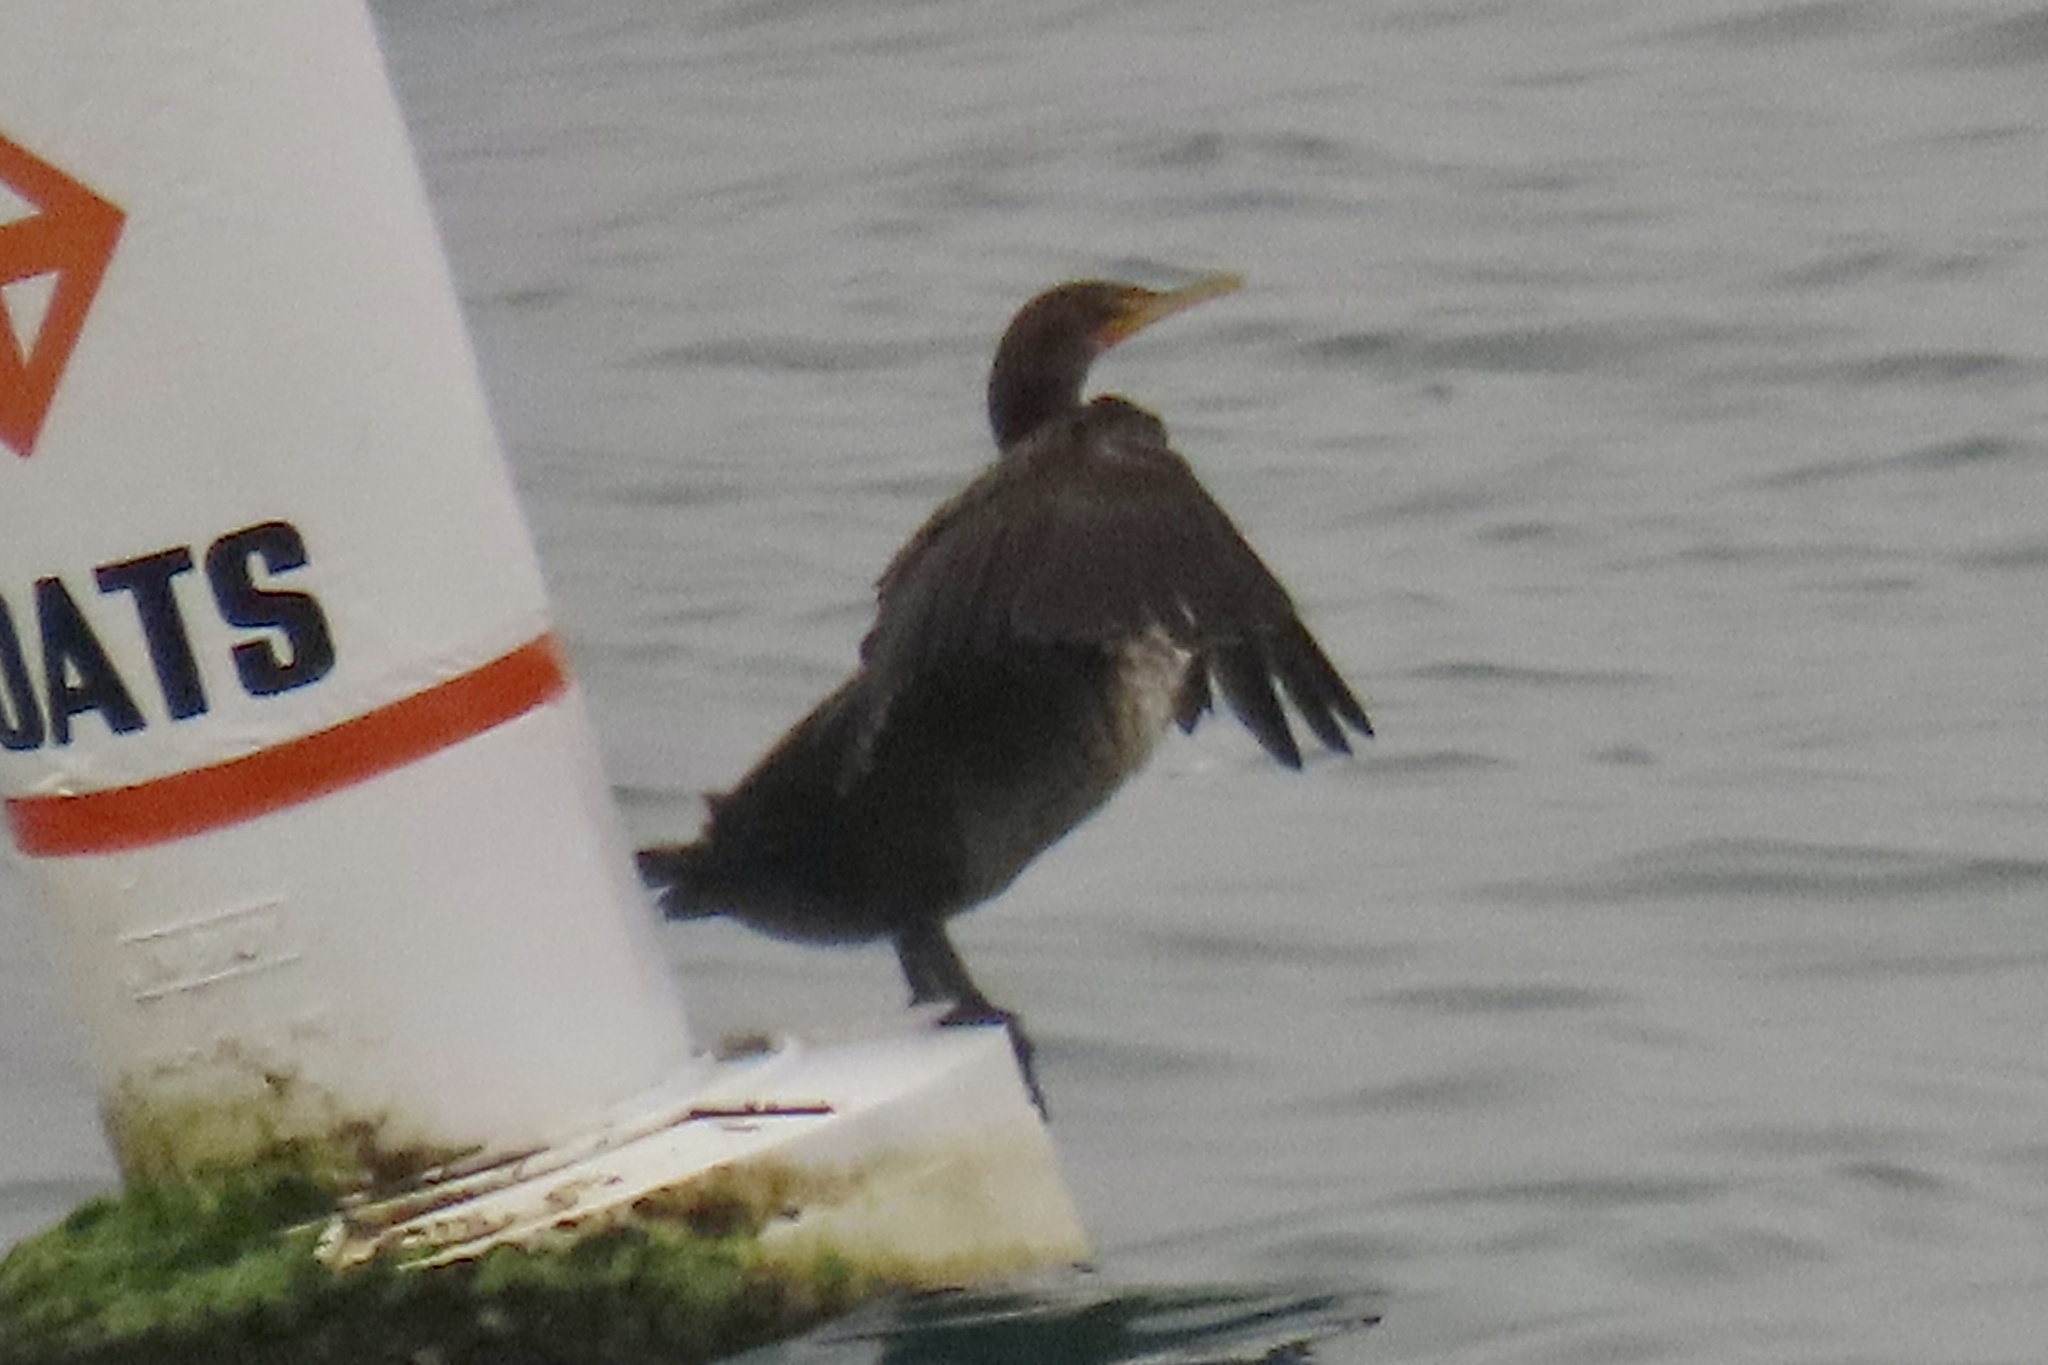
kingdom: Animalia
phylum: Chordata
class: Aves
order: Suliformes
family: Phalacrocoracidae
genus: Phalacrocorax
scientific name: Phalacrocorax auritus
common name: Double-crested cormorant
